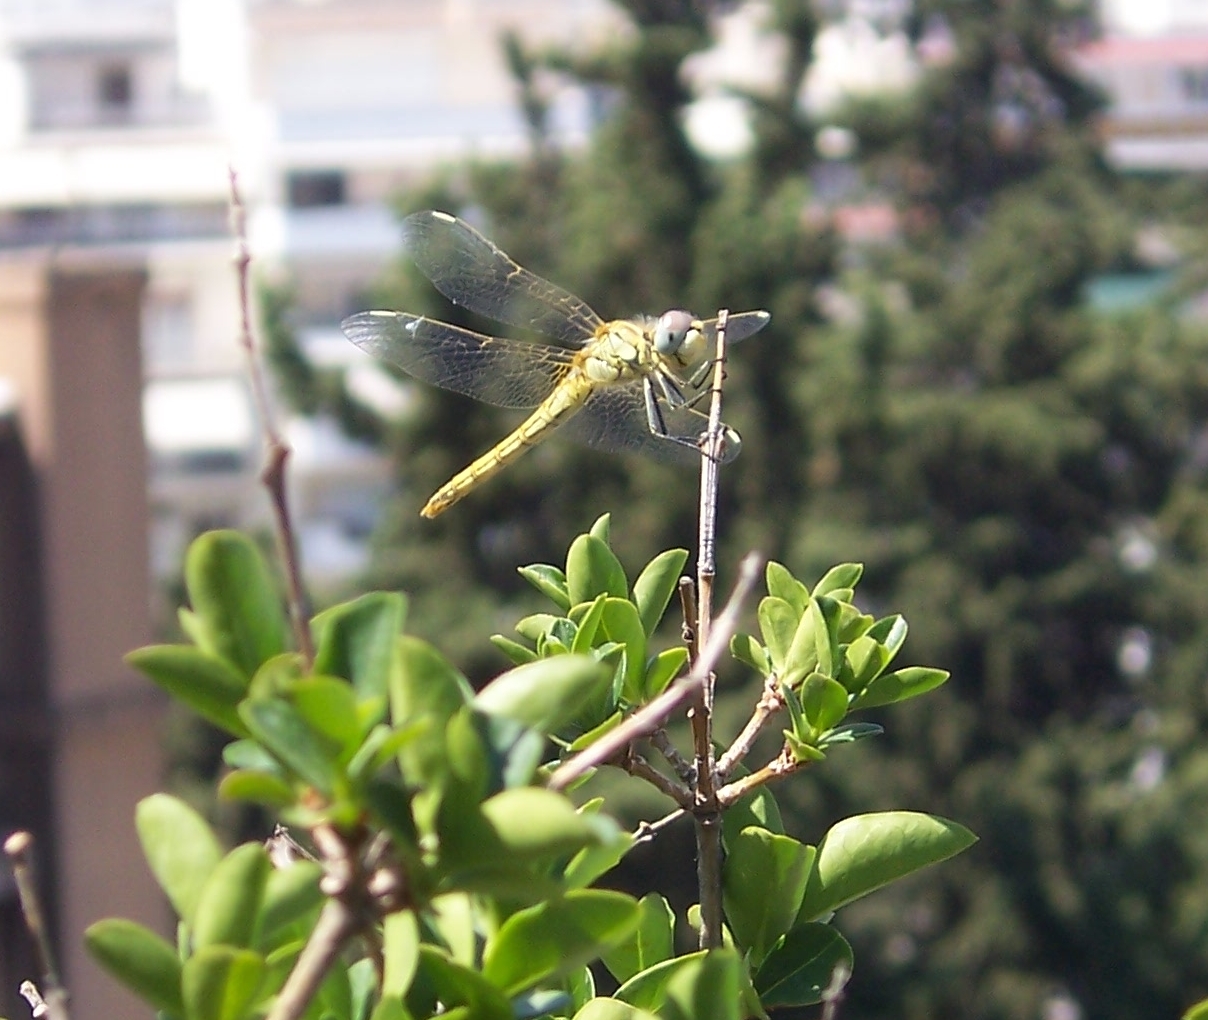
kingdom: Animalia
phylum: Arthropoda
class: Insecta
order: Odonata
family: Libellulidae
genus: Sympetrum
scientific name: Sympetrum fonscolombii
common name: Red-veined darter
